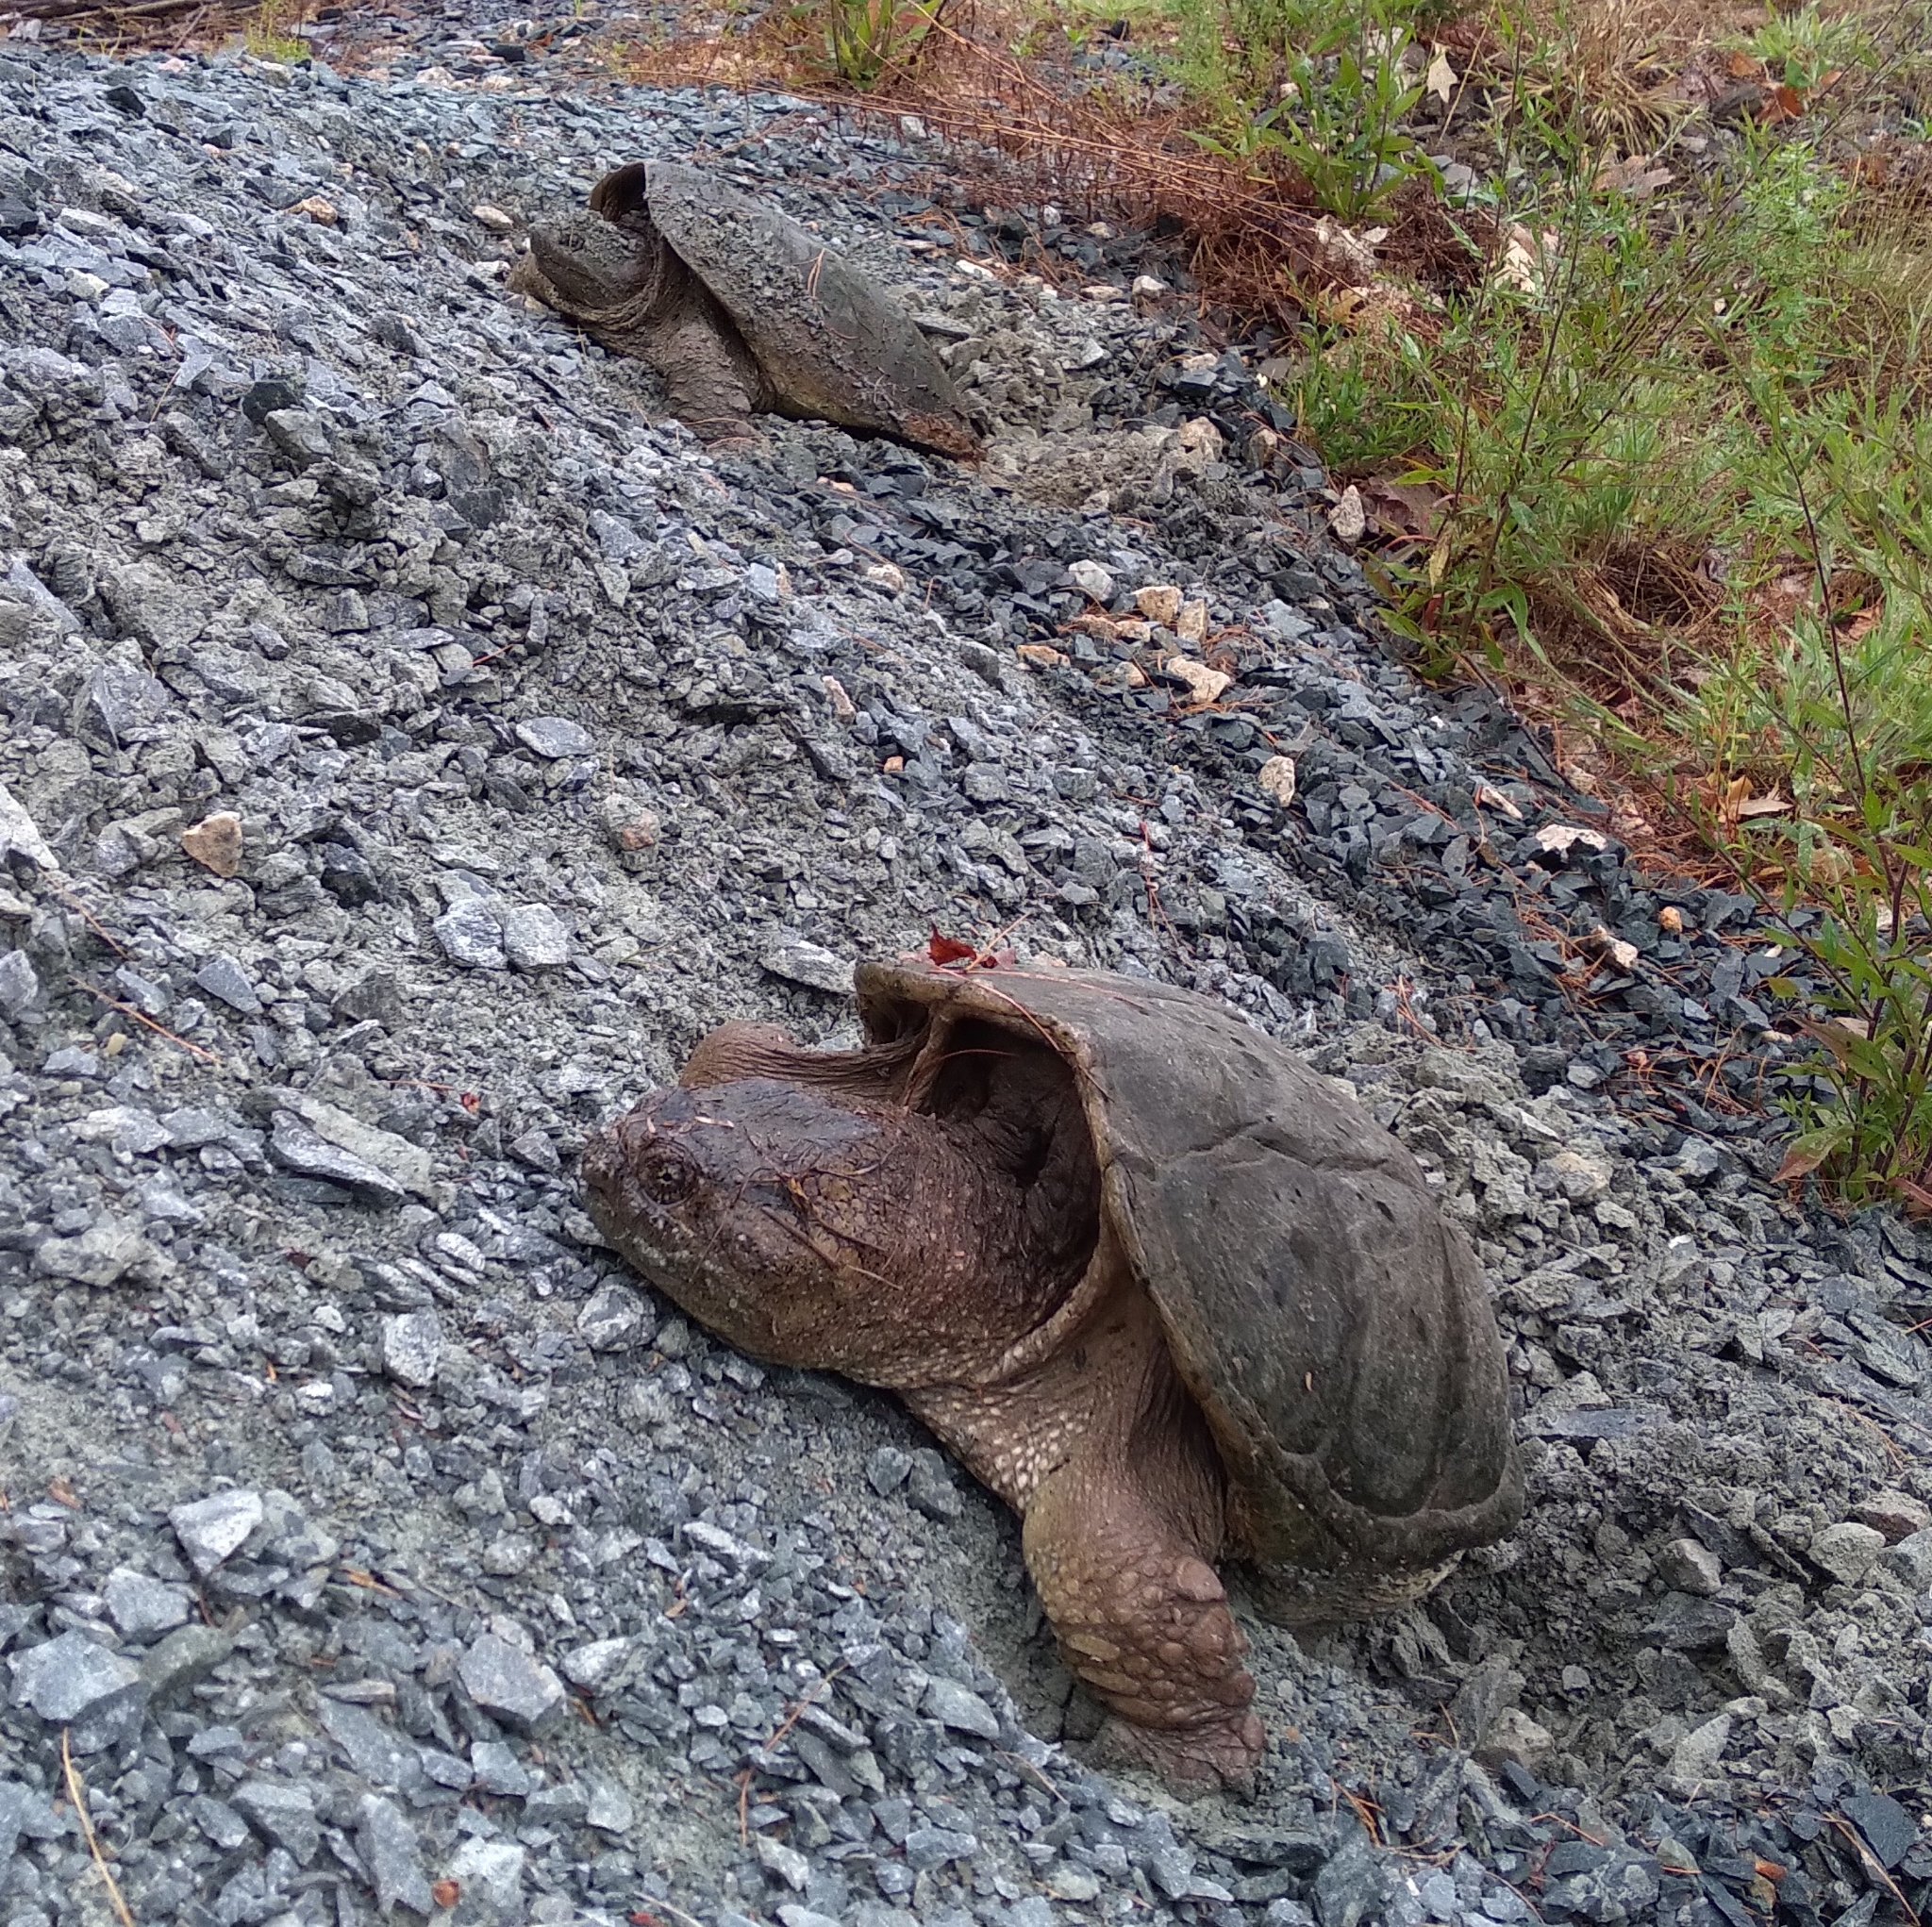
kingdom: Animalia
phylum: Chordata
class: Testudines
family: Chelydridae
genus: Chelydra
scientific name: Chelydra serpentina
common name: Common snapping turtle
